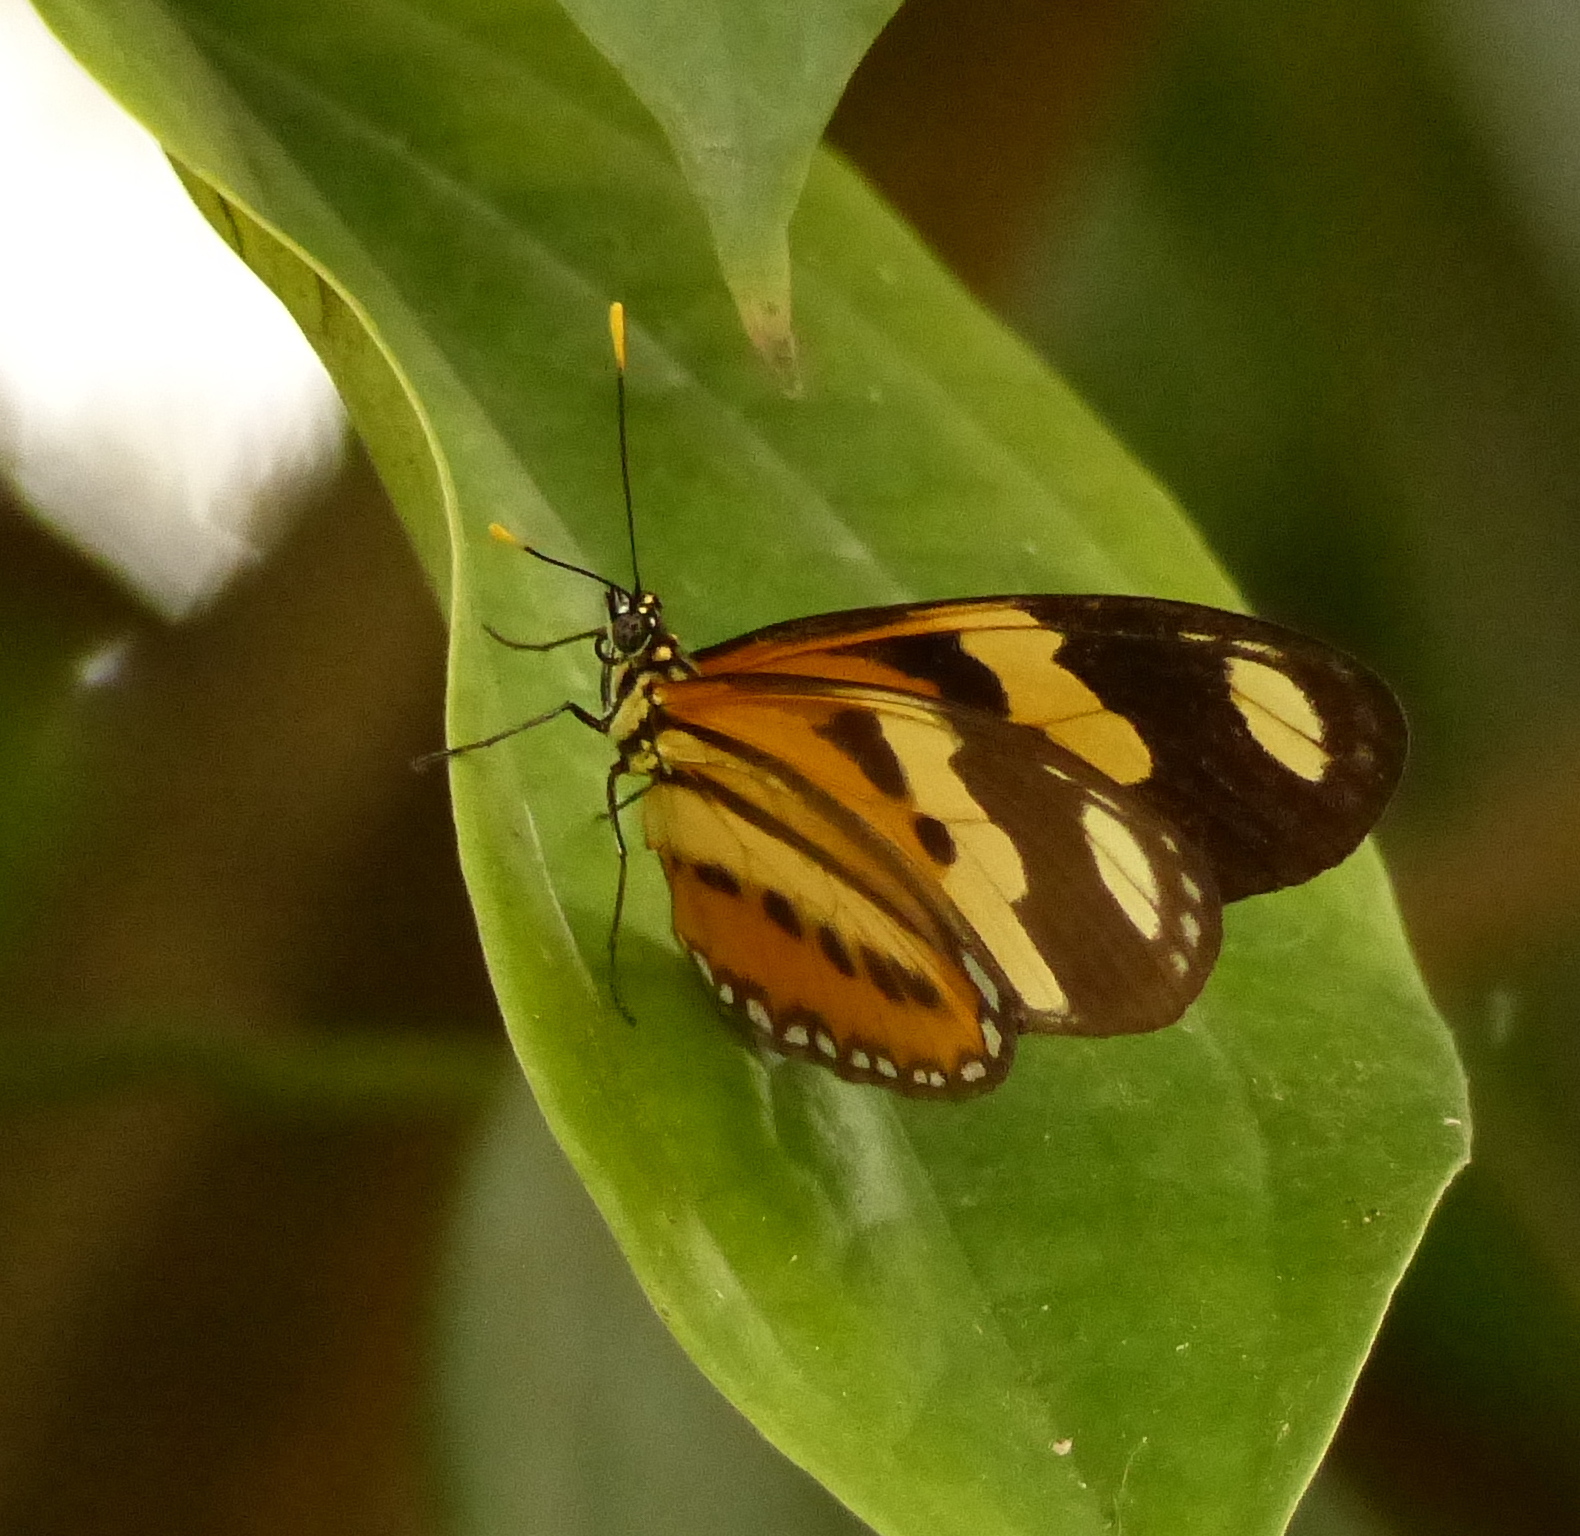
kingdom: Animalia
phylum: Arthropoda
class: Insecta
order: Lepidoptera
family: Nymphalidae
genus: Eueides
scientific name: Eueides isabella
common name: Isabella's longwing
